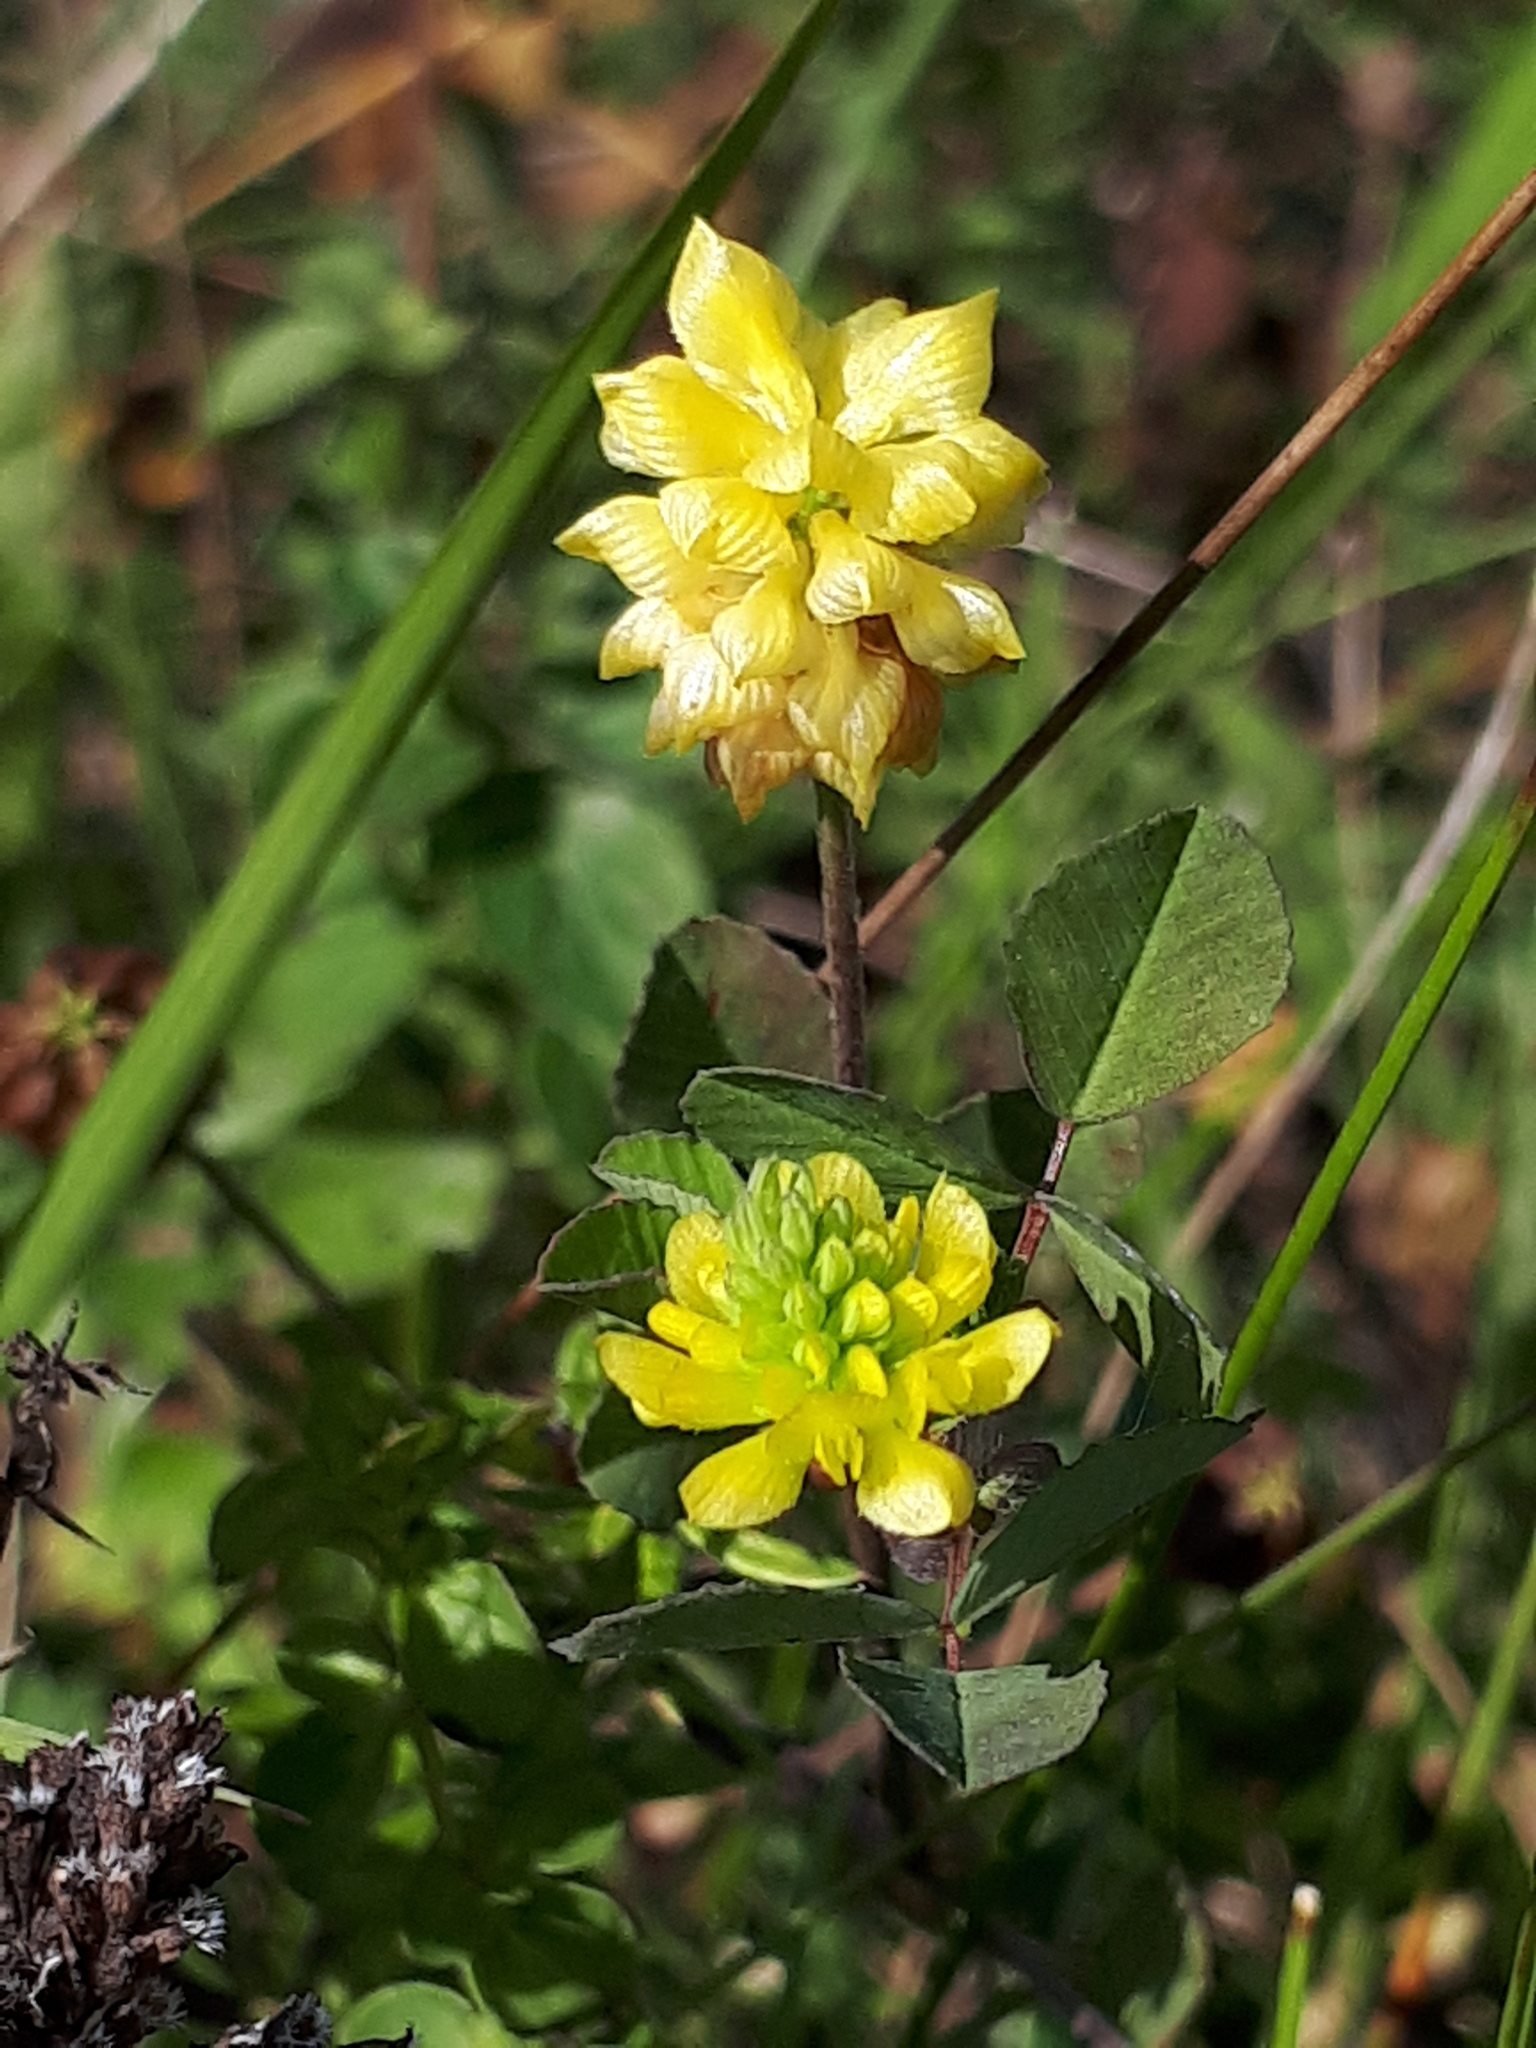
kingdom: Plantae
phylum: Tracheophyta
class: Magnoliopsida
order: Fabales
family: Fabaceae
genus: Trifolium
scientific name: Trifolium campestre
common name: Field clover
